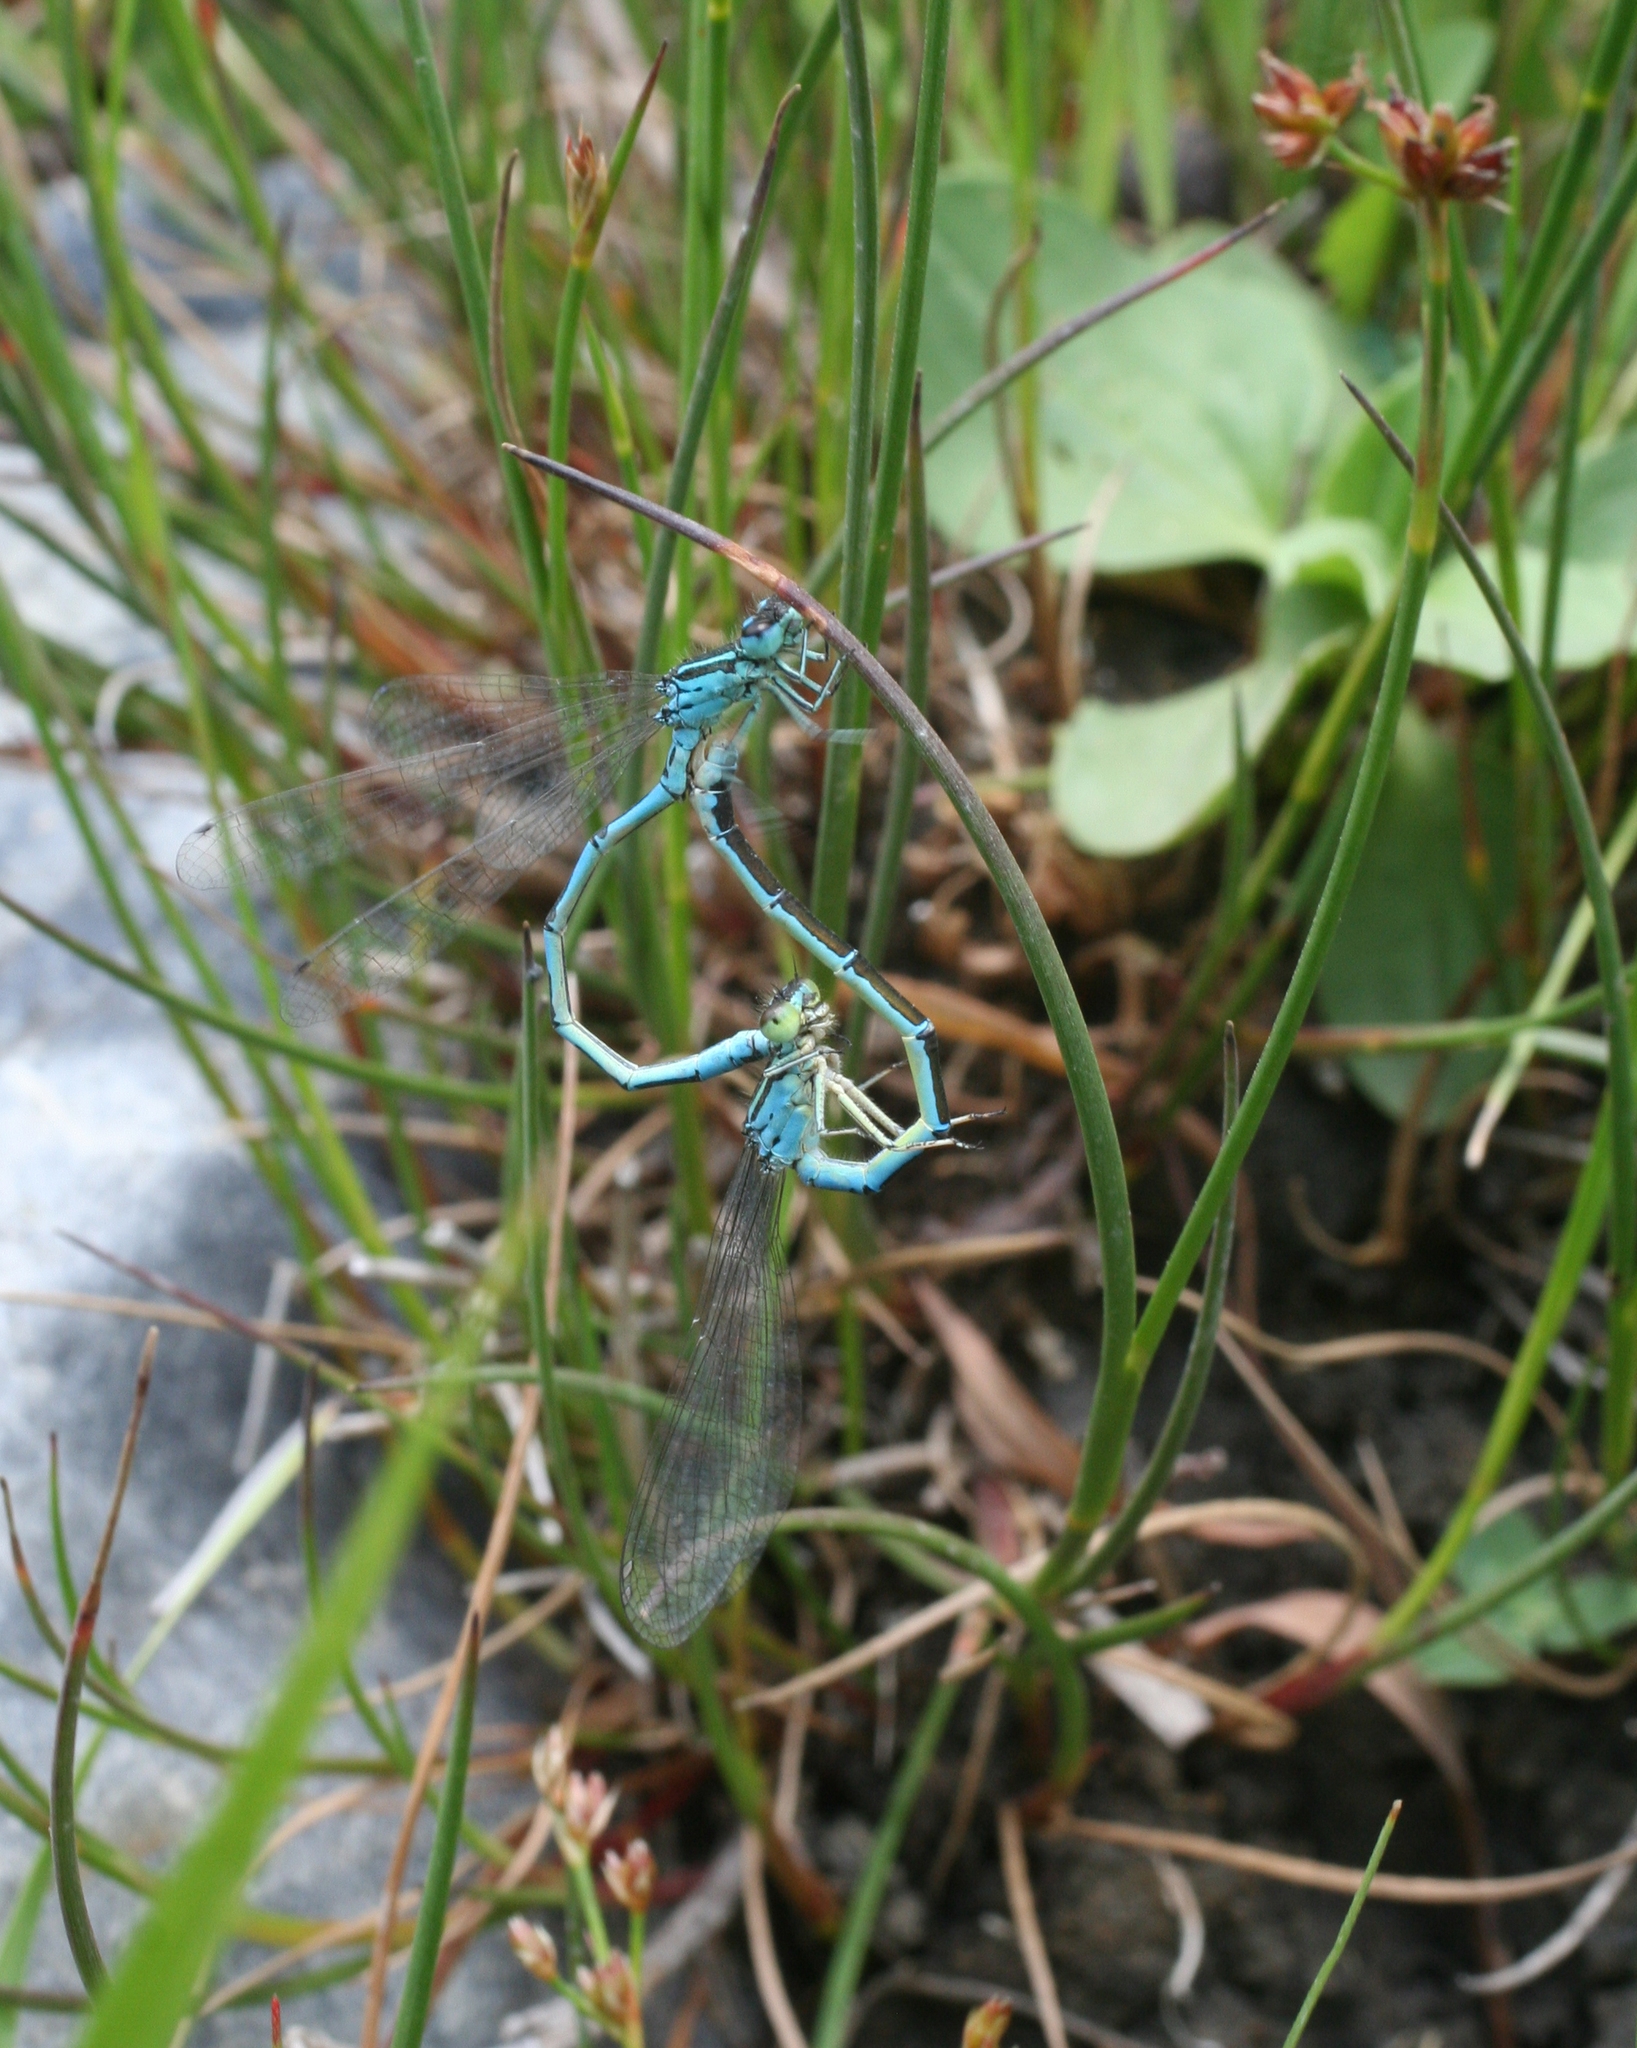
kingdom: Animalia
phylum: Arthropoda
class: Insecta
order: Odonata
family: Coenagrionidae
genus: Coenagrion
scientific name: Coenagrion ornatum
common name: Ornate bluet
